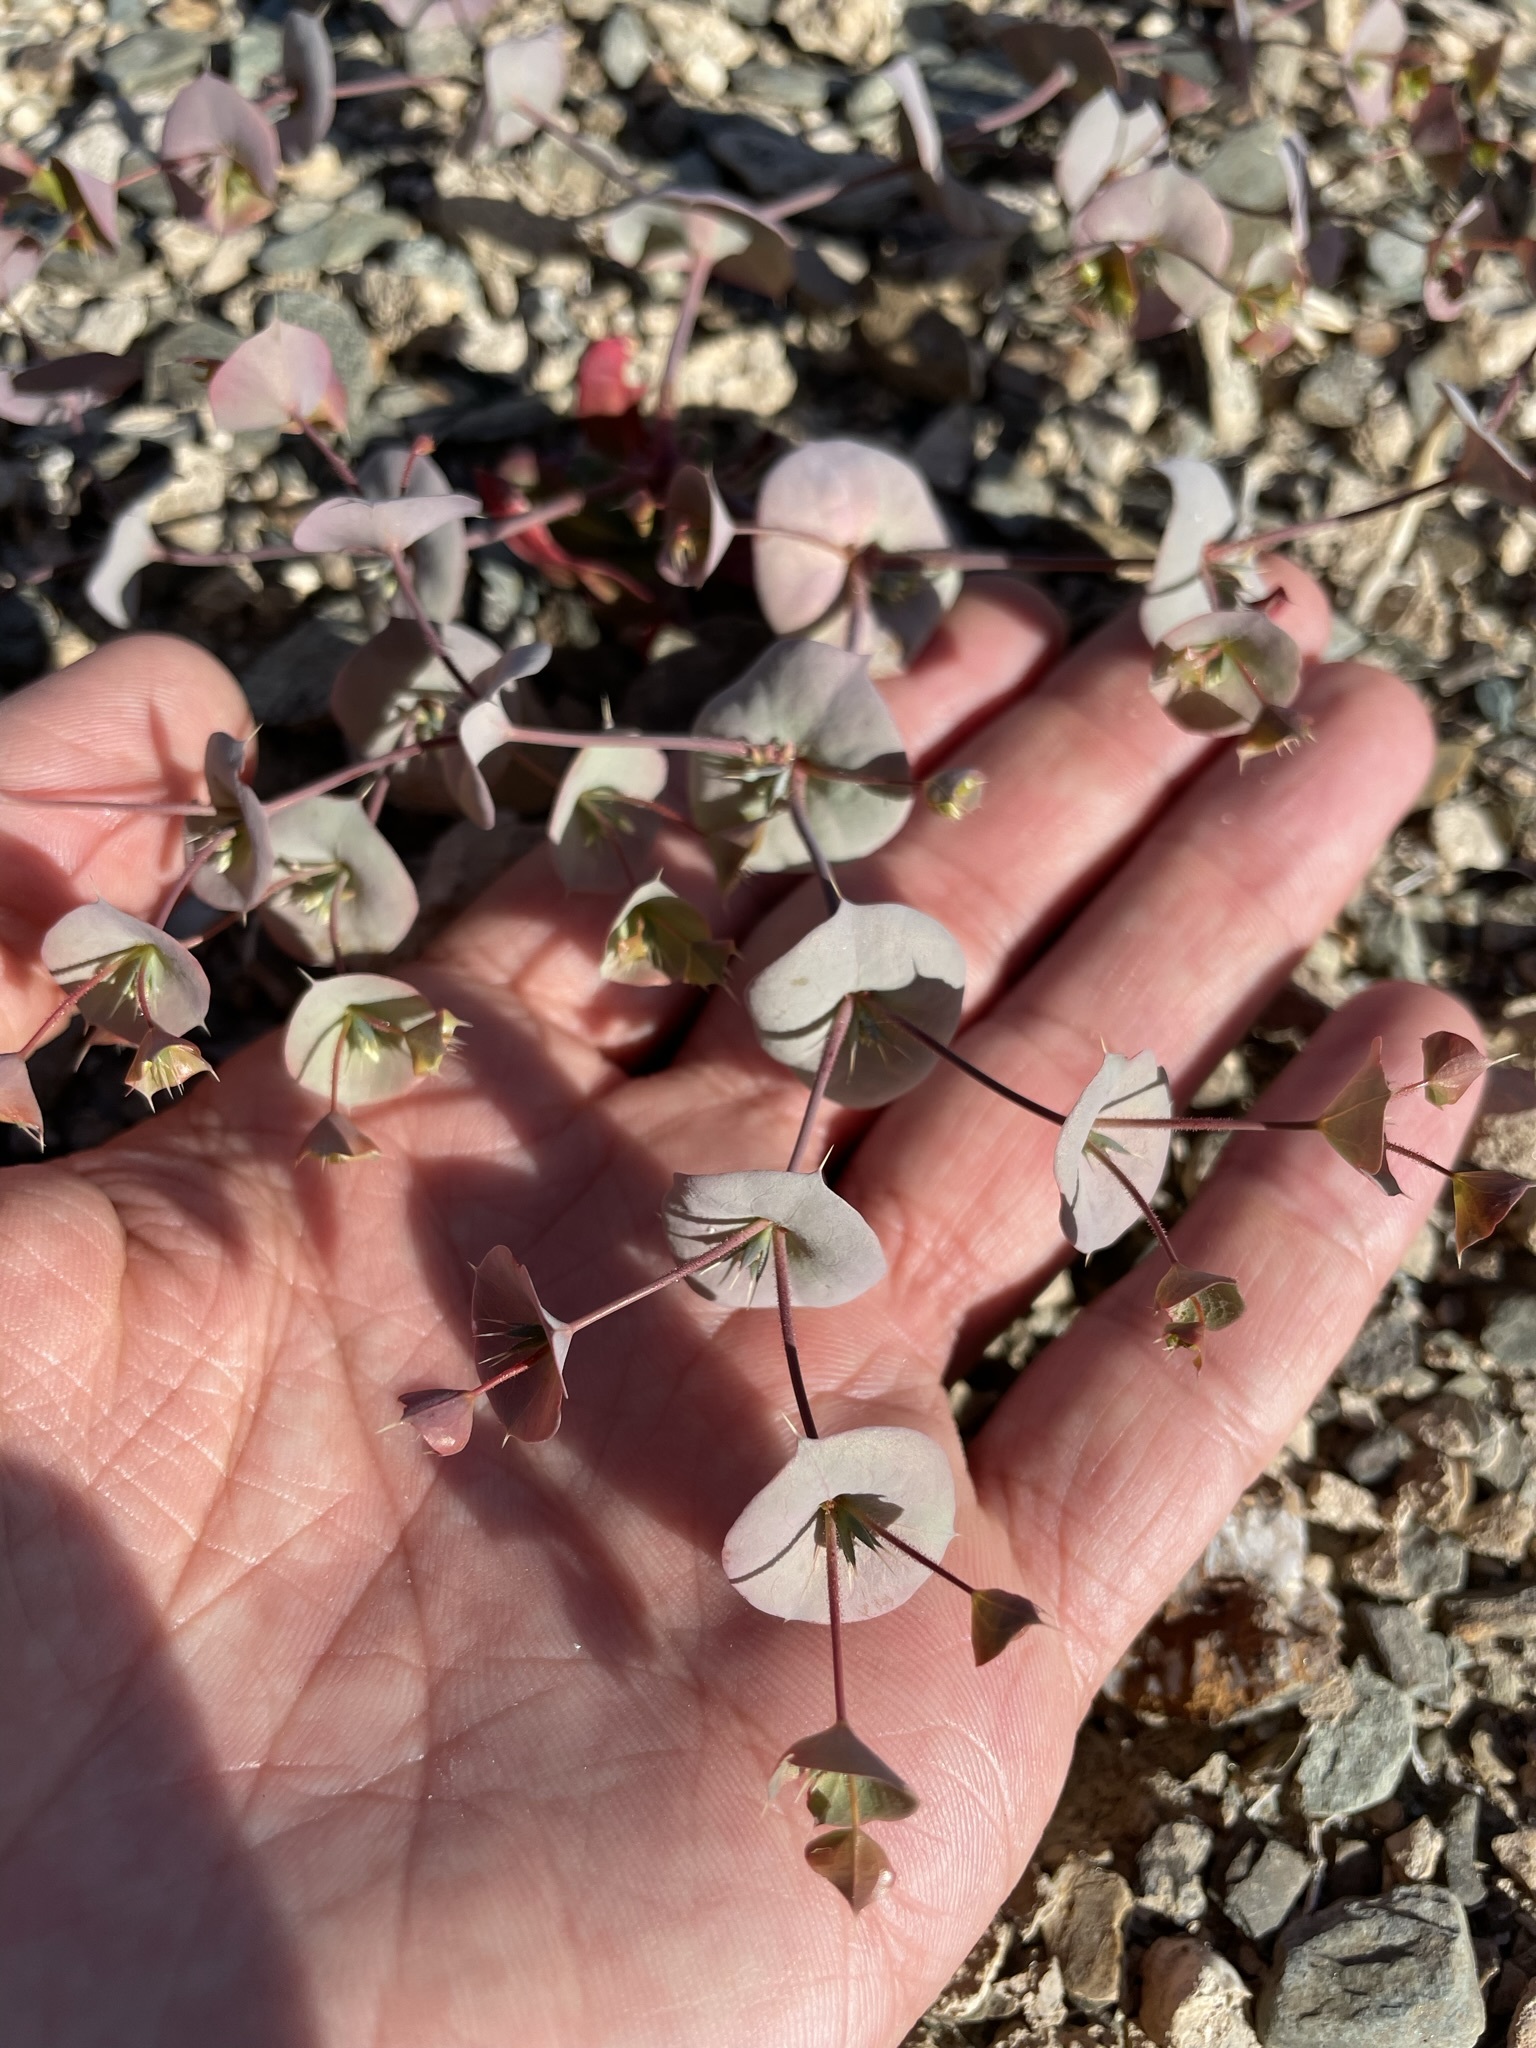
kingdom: Plantae
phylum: Tracheophyta
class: Magnoliopsida
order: Caryophyllales
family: Polygonaceae
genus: Oxytheca
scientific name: Oxytheca perfoliata
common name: Round-leaf puncturebract
